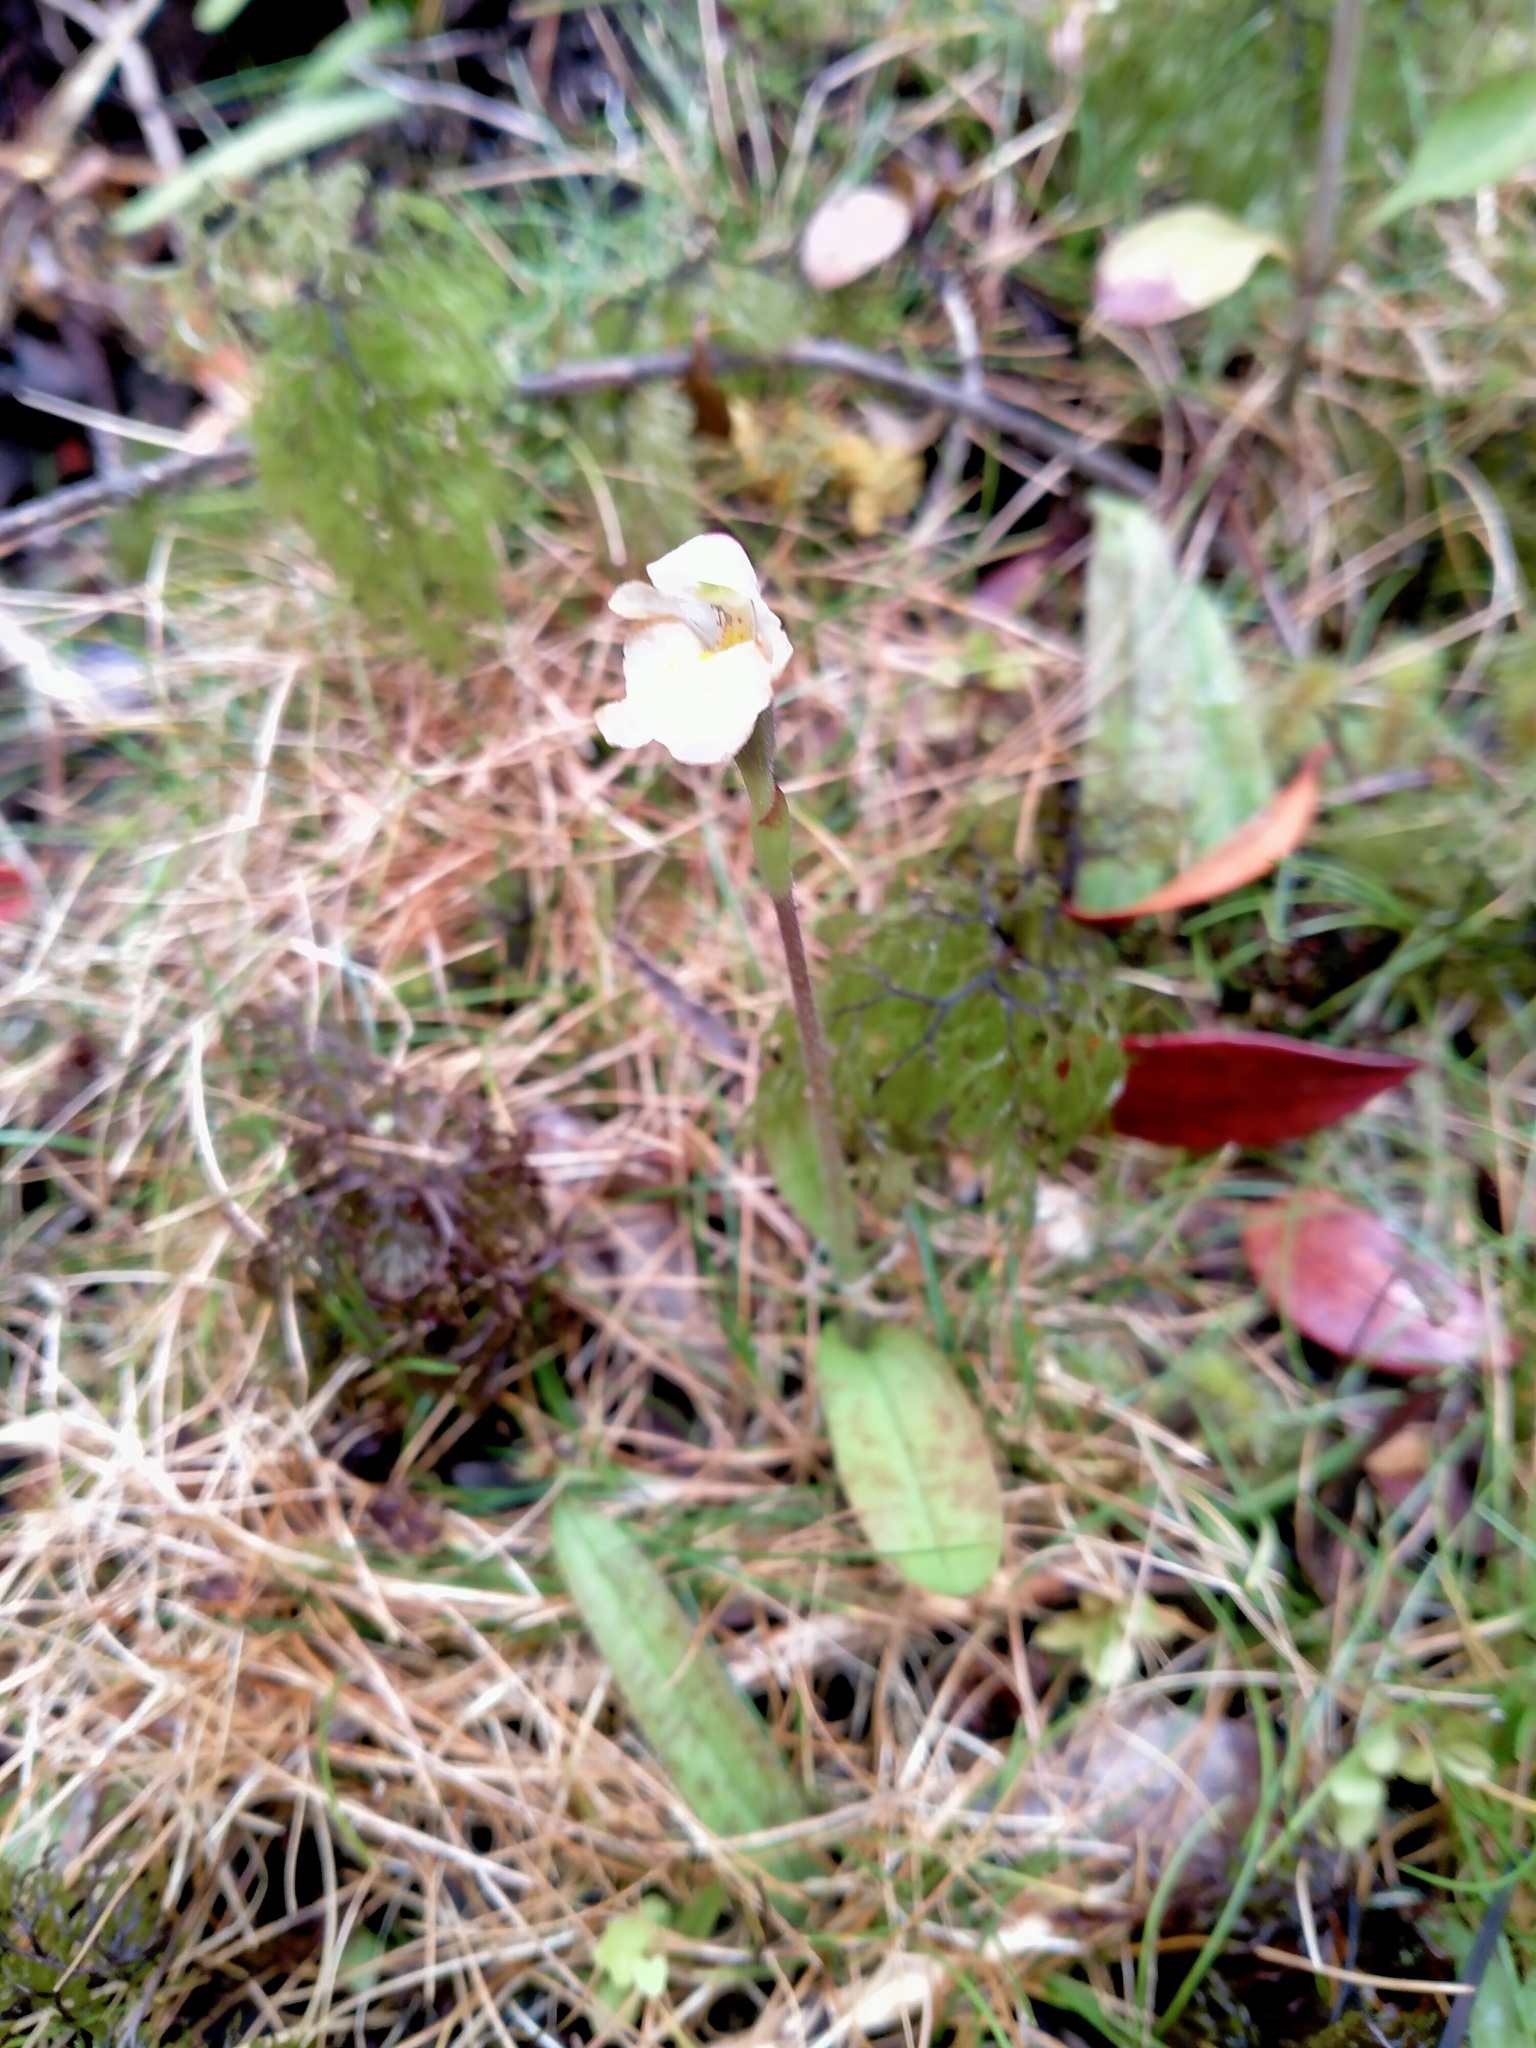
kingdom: Plantae
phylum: Tracheophyta
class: Liliopsida
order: Asparagales
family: Orchidaceae
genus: Aporostylis
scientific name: Aporostylis bifolia
